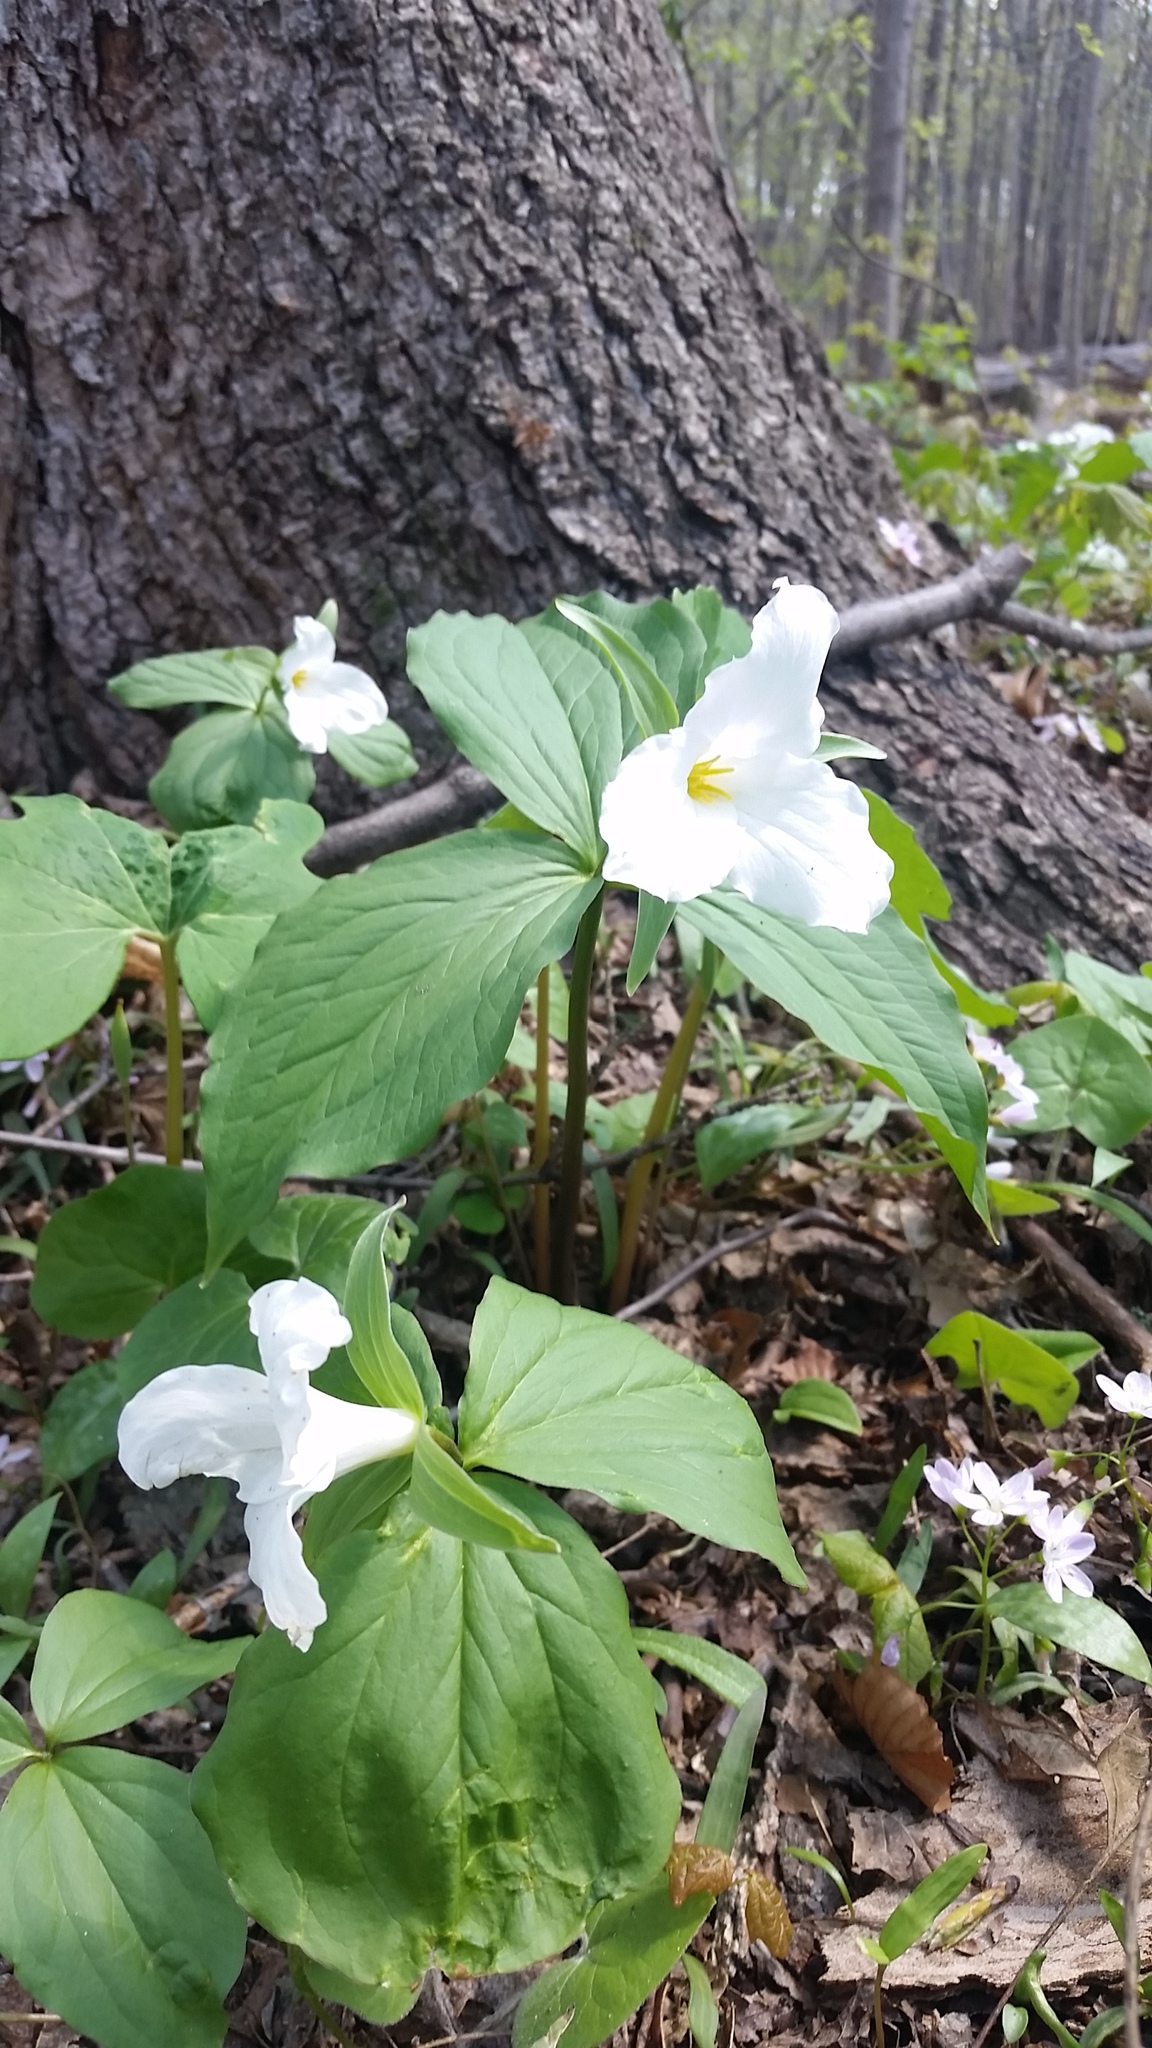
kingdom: Plantae
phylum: Tracheophyta
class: Liliopsida
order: Liliales
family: Melanthiaceae
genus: Trillium
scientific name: Trillium grandiflorum
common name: Great white trillium
